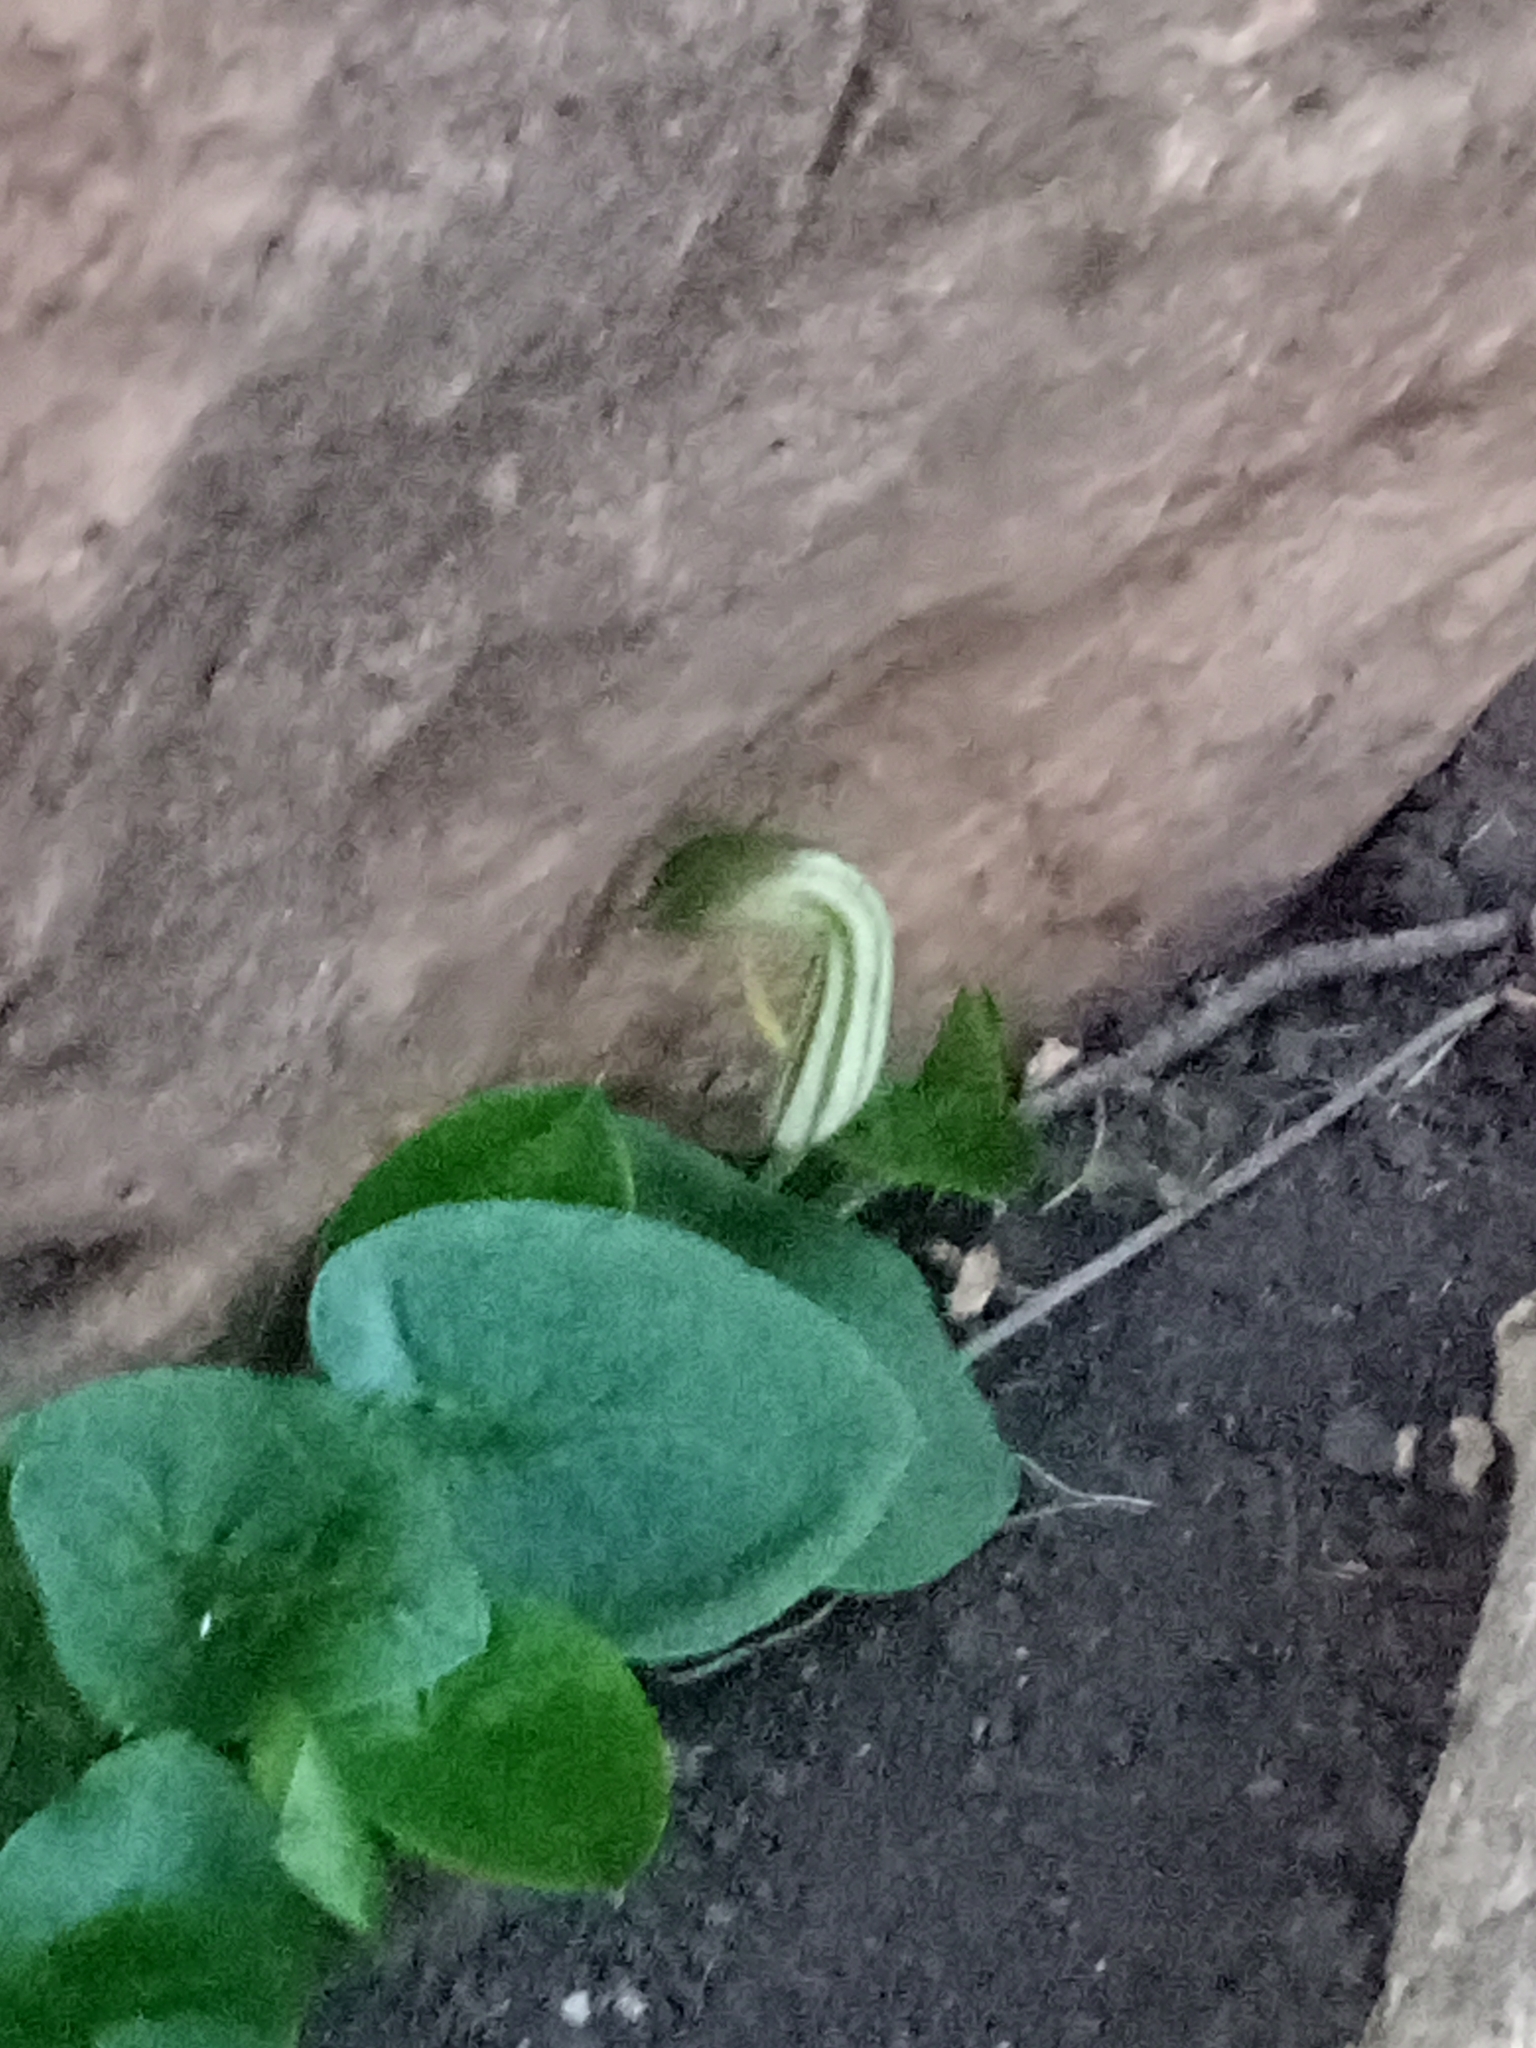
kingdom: Plantae
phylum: Tracheophyta
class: Liliopsida
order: Alismatales
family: Araceae
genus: Arisarum
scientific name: Arisarum vulgare
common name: Common arisarum
